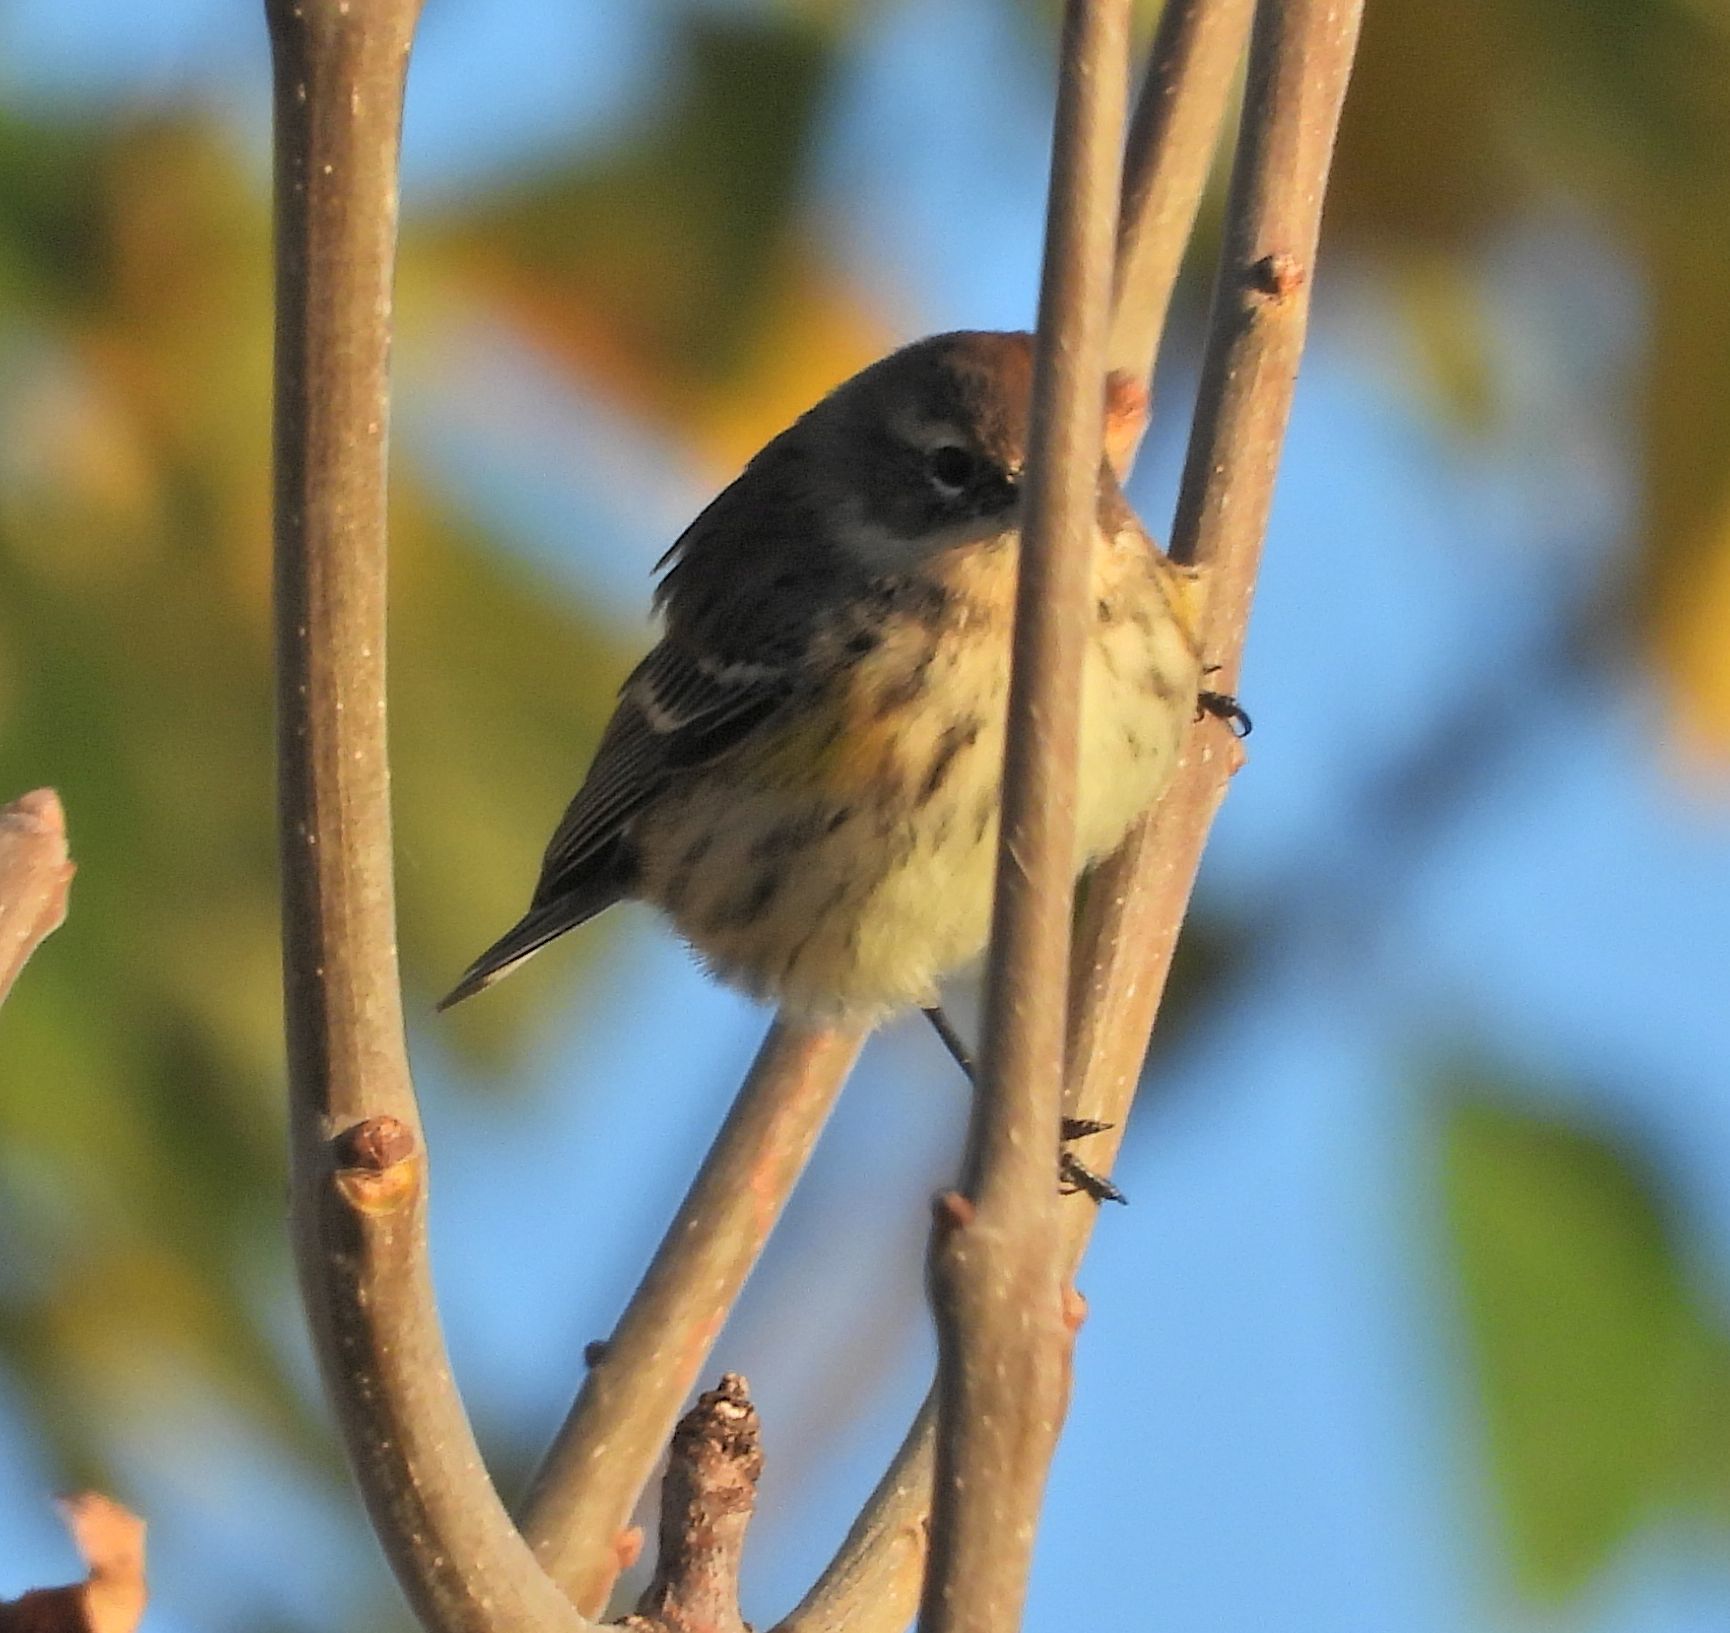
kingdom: Animalia
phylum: Chordata
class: Aves
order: Passeriformes
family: Parulidae
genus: Setophaga
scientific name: Setophaga coronata
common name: Myrtle warbler
